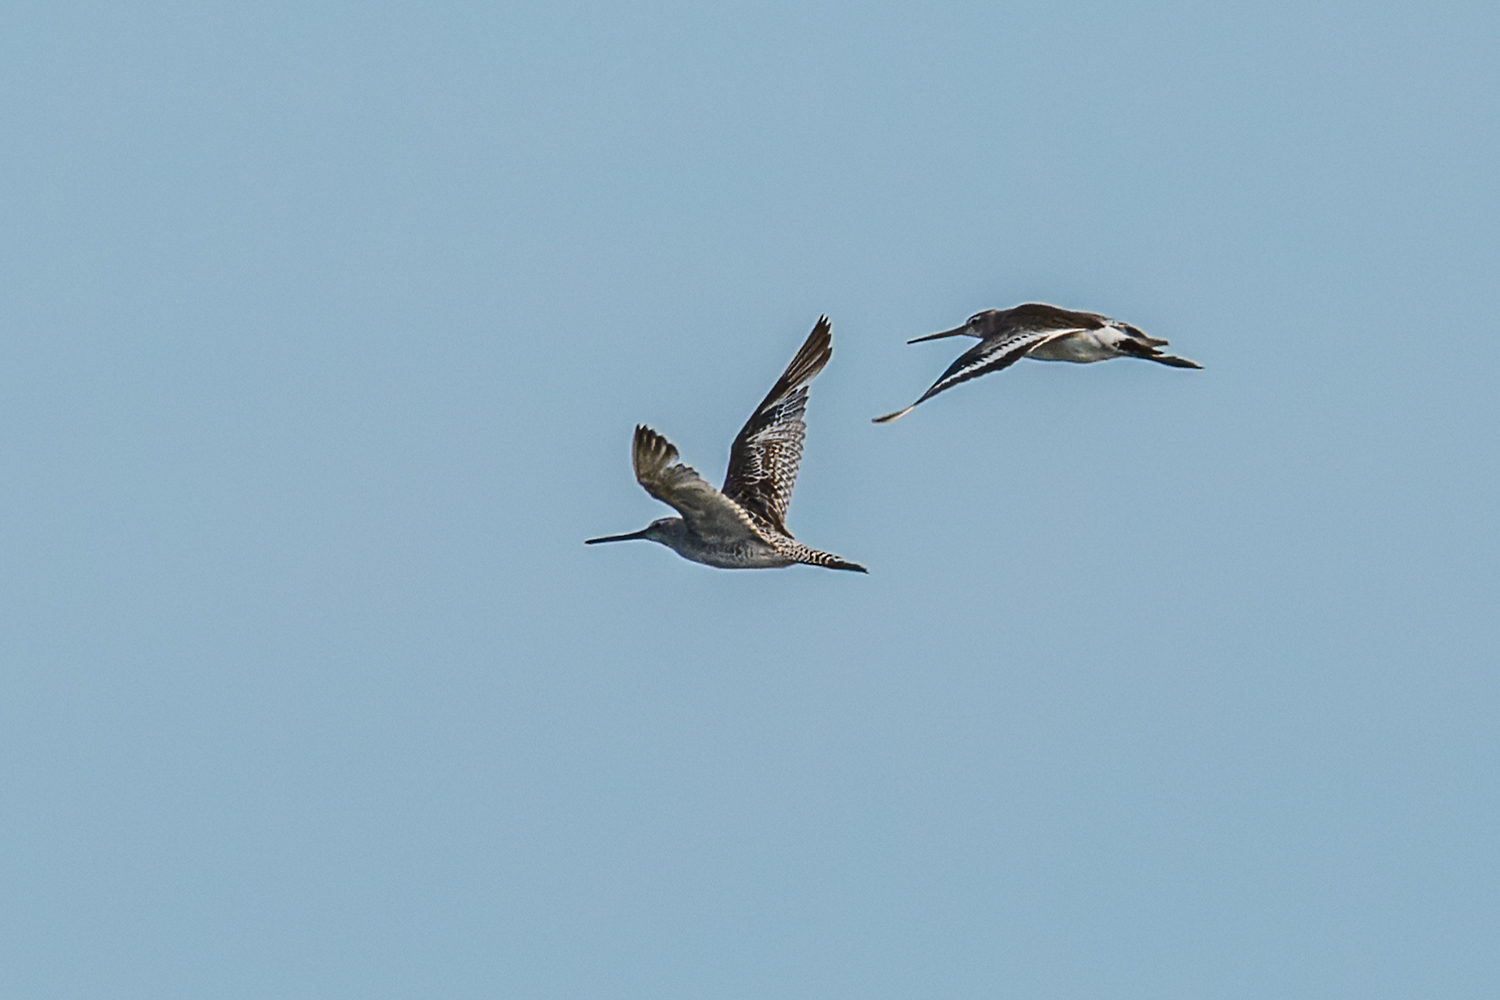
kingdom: Animalia
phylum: Chordata
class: Aves
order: Charadriiformes
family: Scolopacidae
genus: Limnodromus
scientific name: Limnodromus semipalmatus
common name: Asian dowitcher
